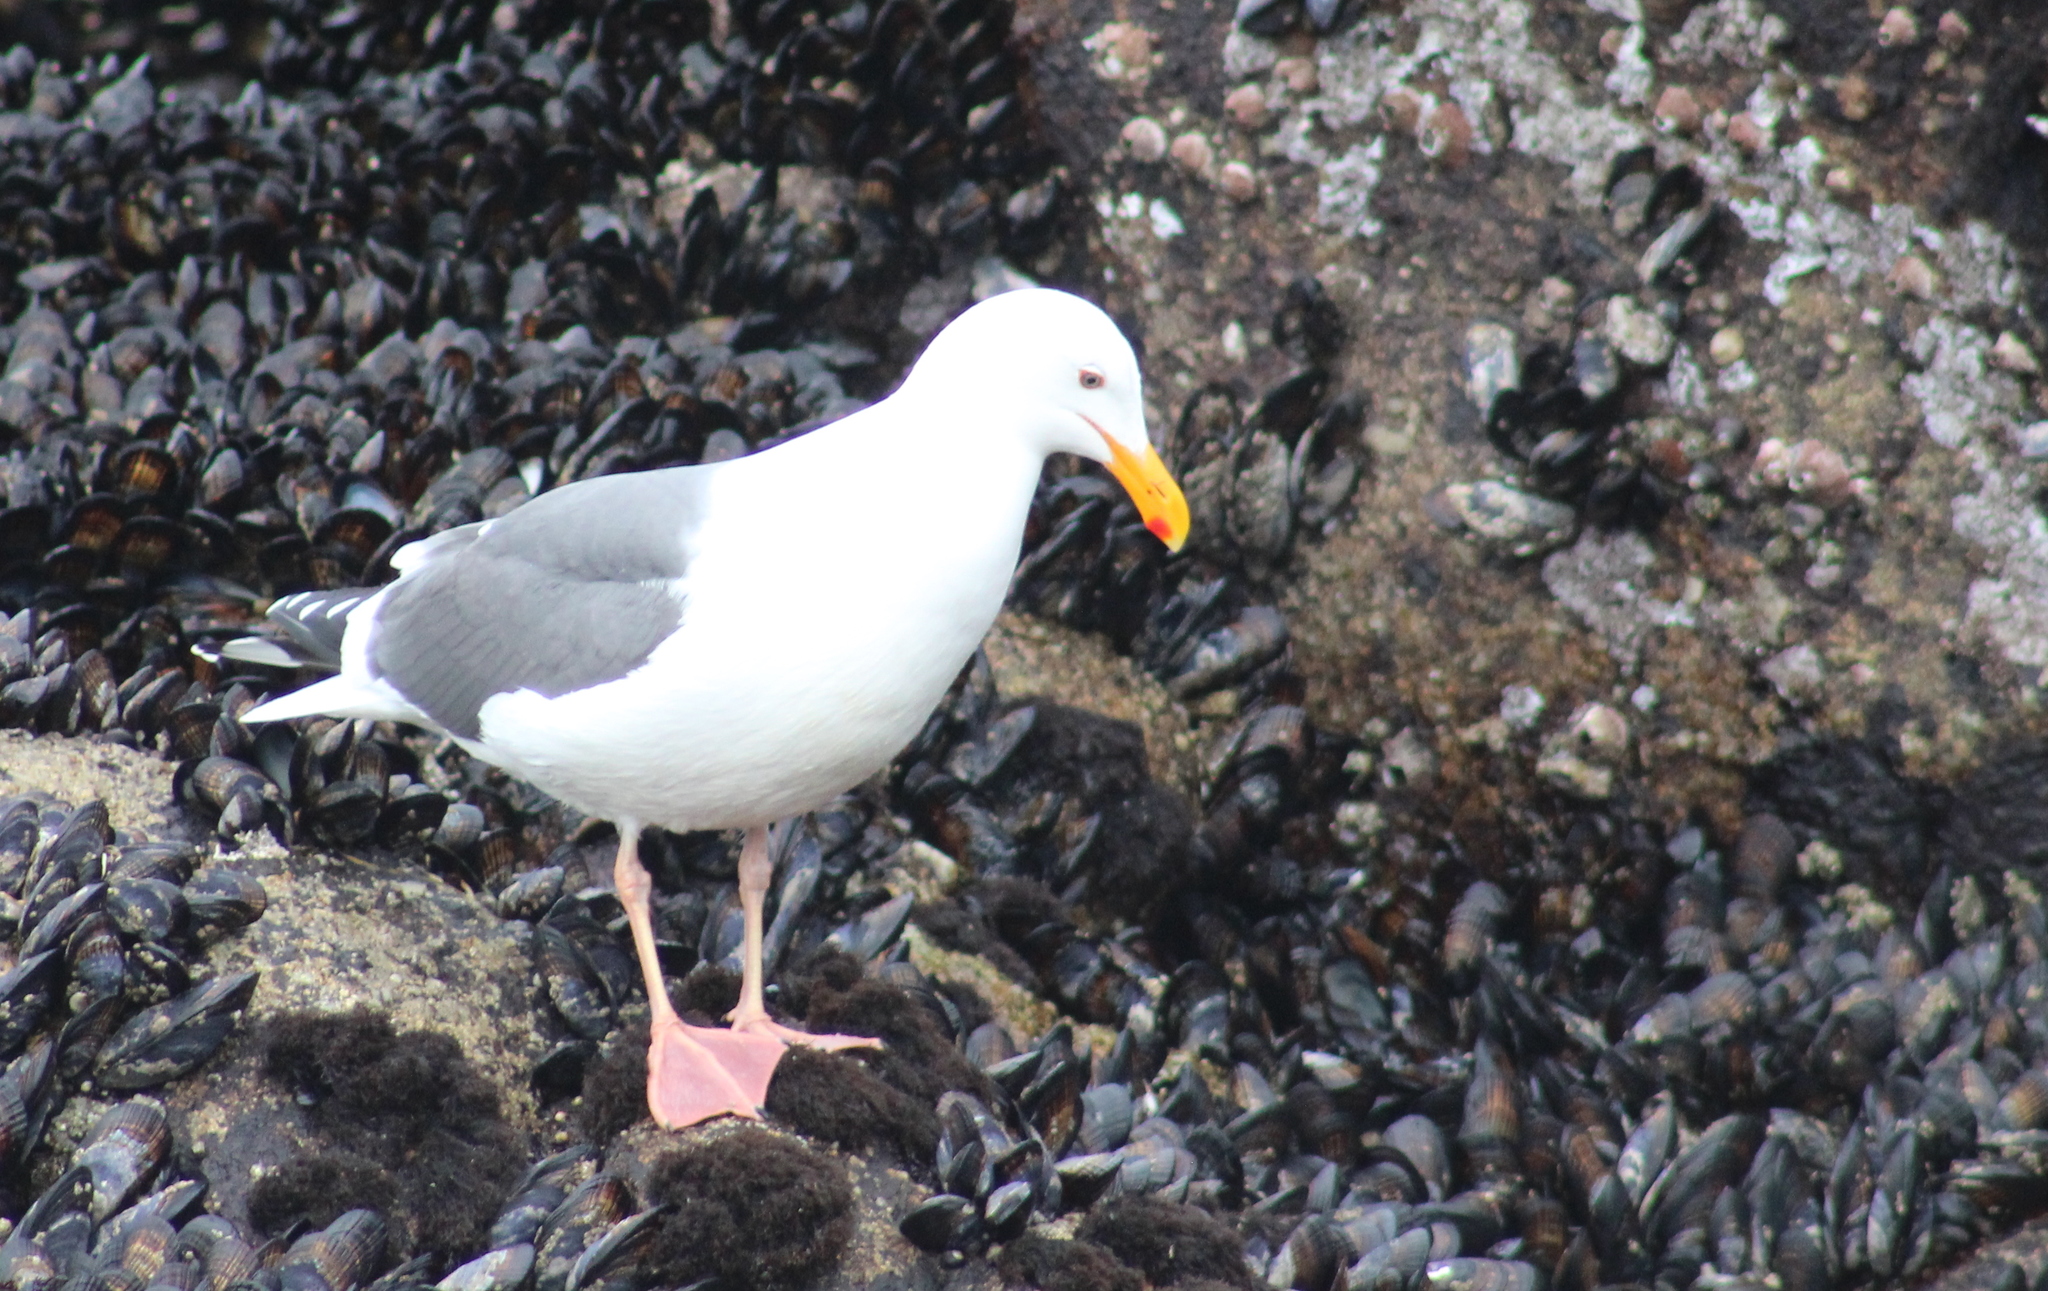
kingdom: Animalia
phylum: Chordata
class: Aves
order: Charadriiformes
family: Laridae
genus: Larus
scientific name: Larus occidentalis
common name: Western gull
